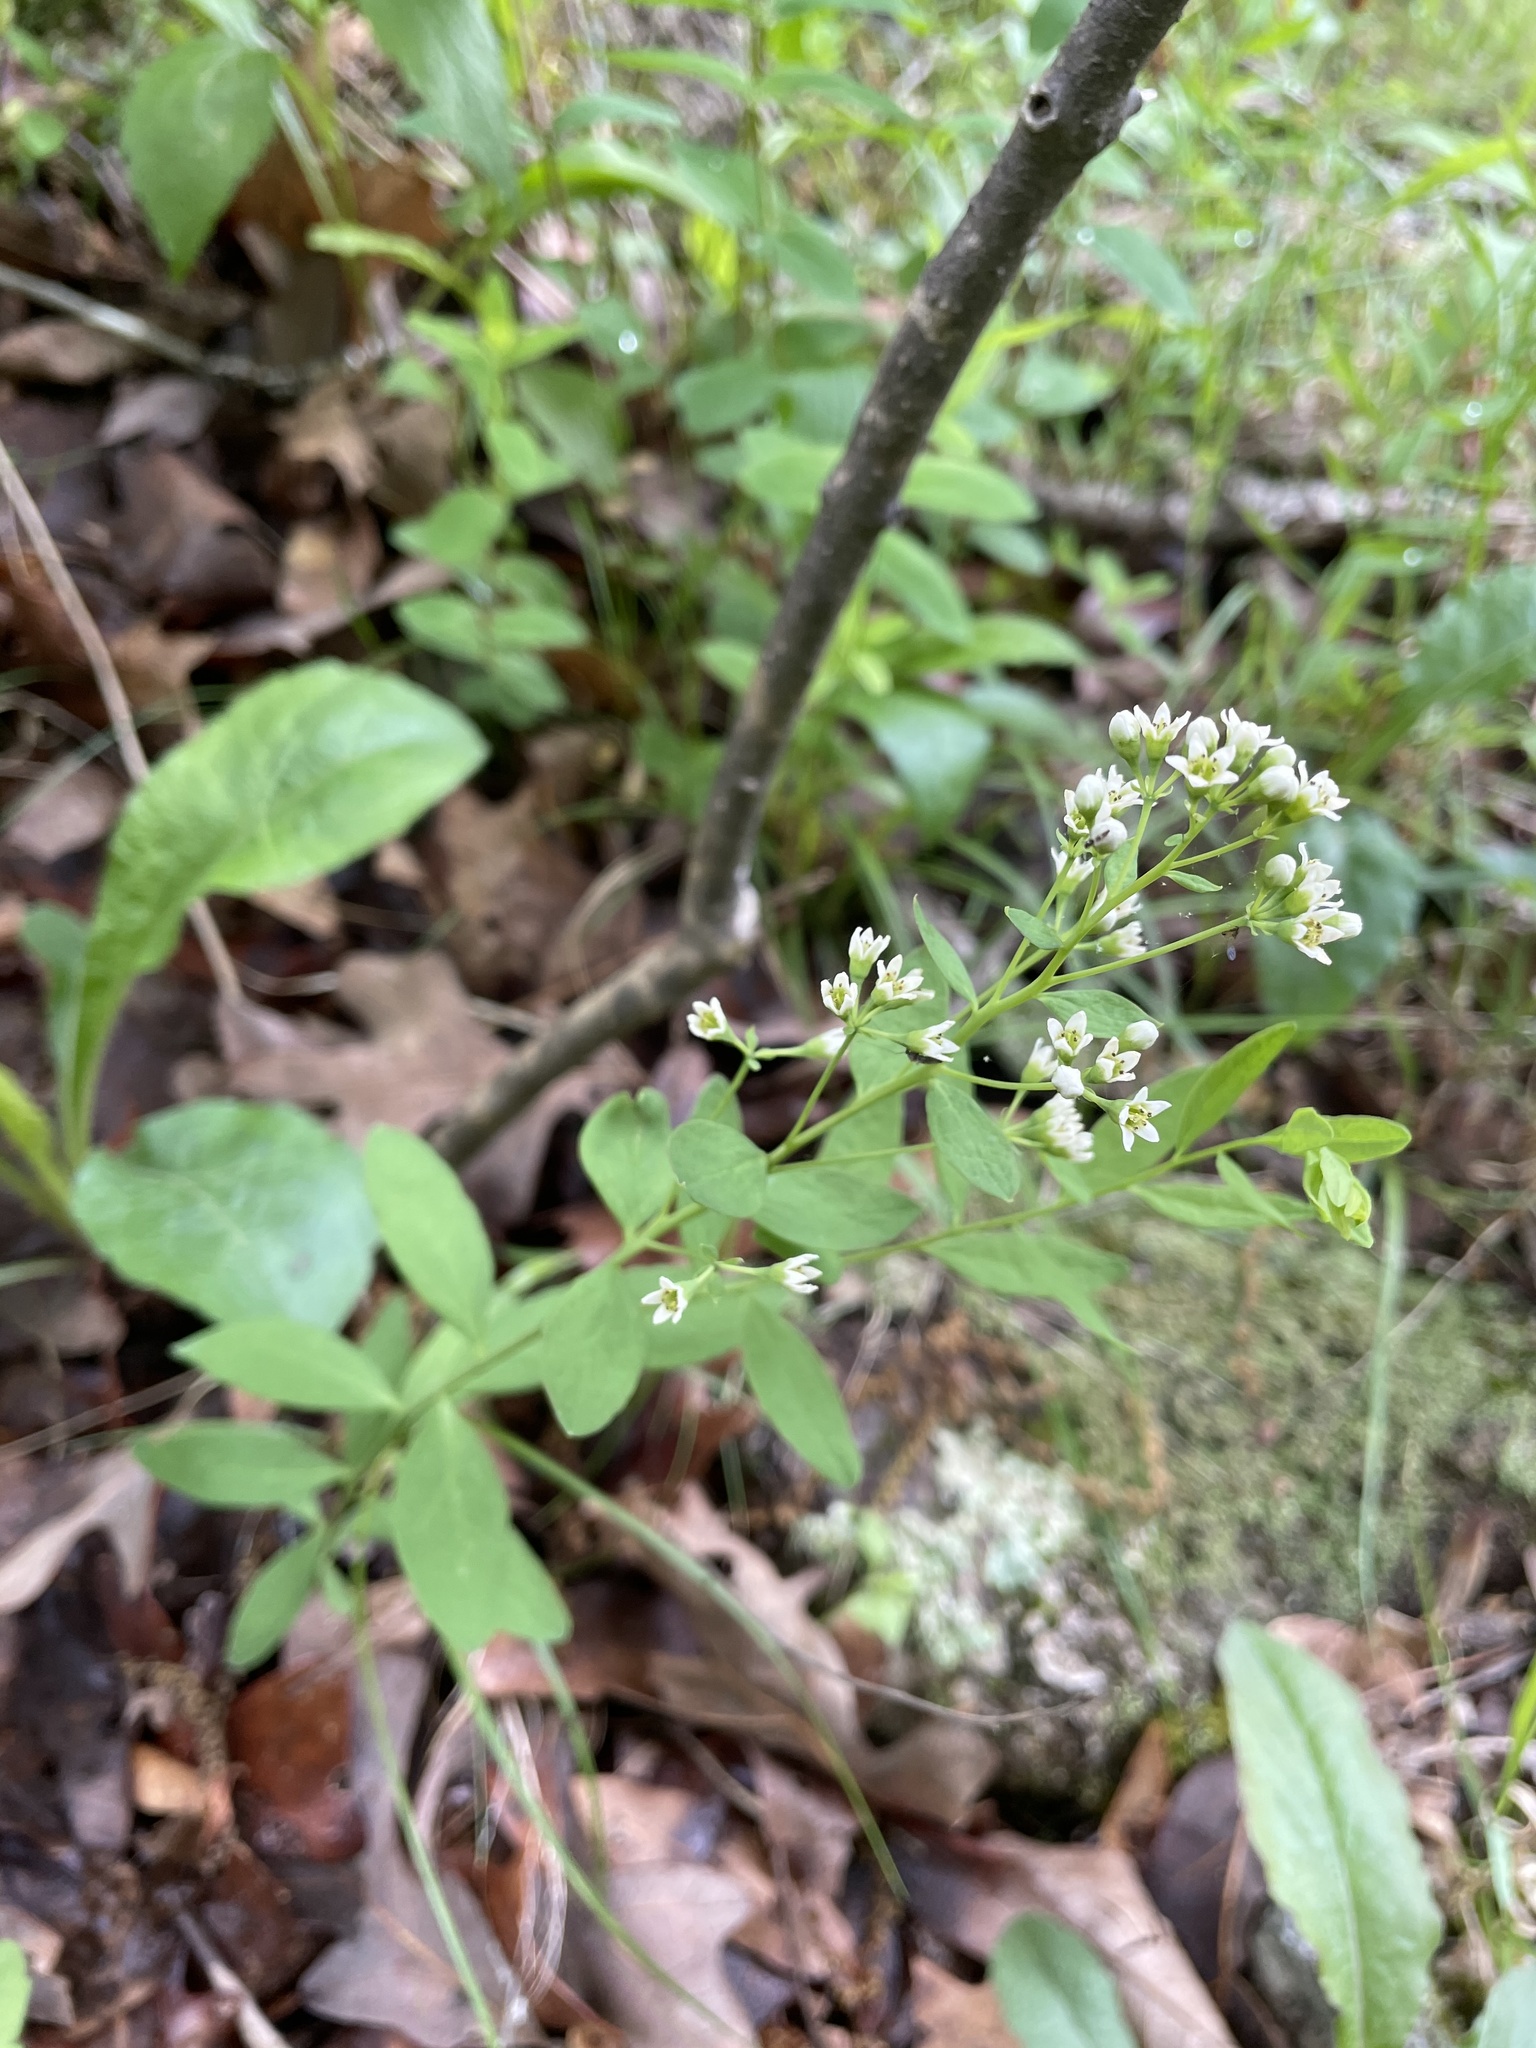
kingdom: Plantae
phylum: Tracheophyta
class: Magnoliopsida
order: Santalales
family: Comandraceae
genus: Comandra
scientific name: Comandra umbellata
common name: Bastard toadflax
